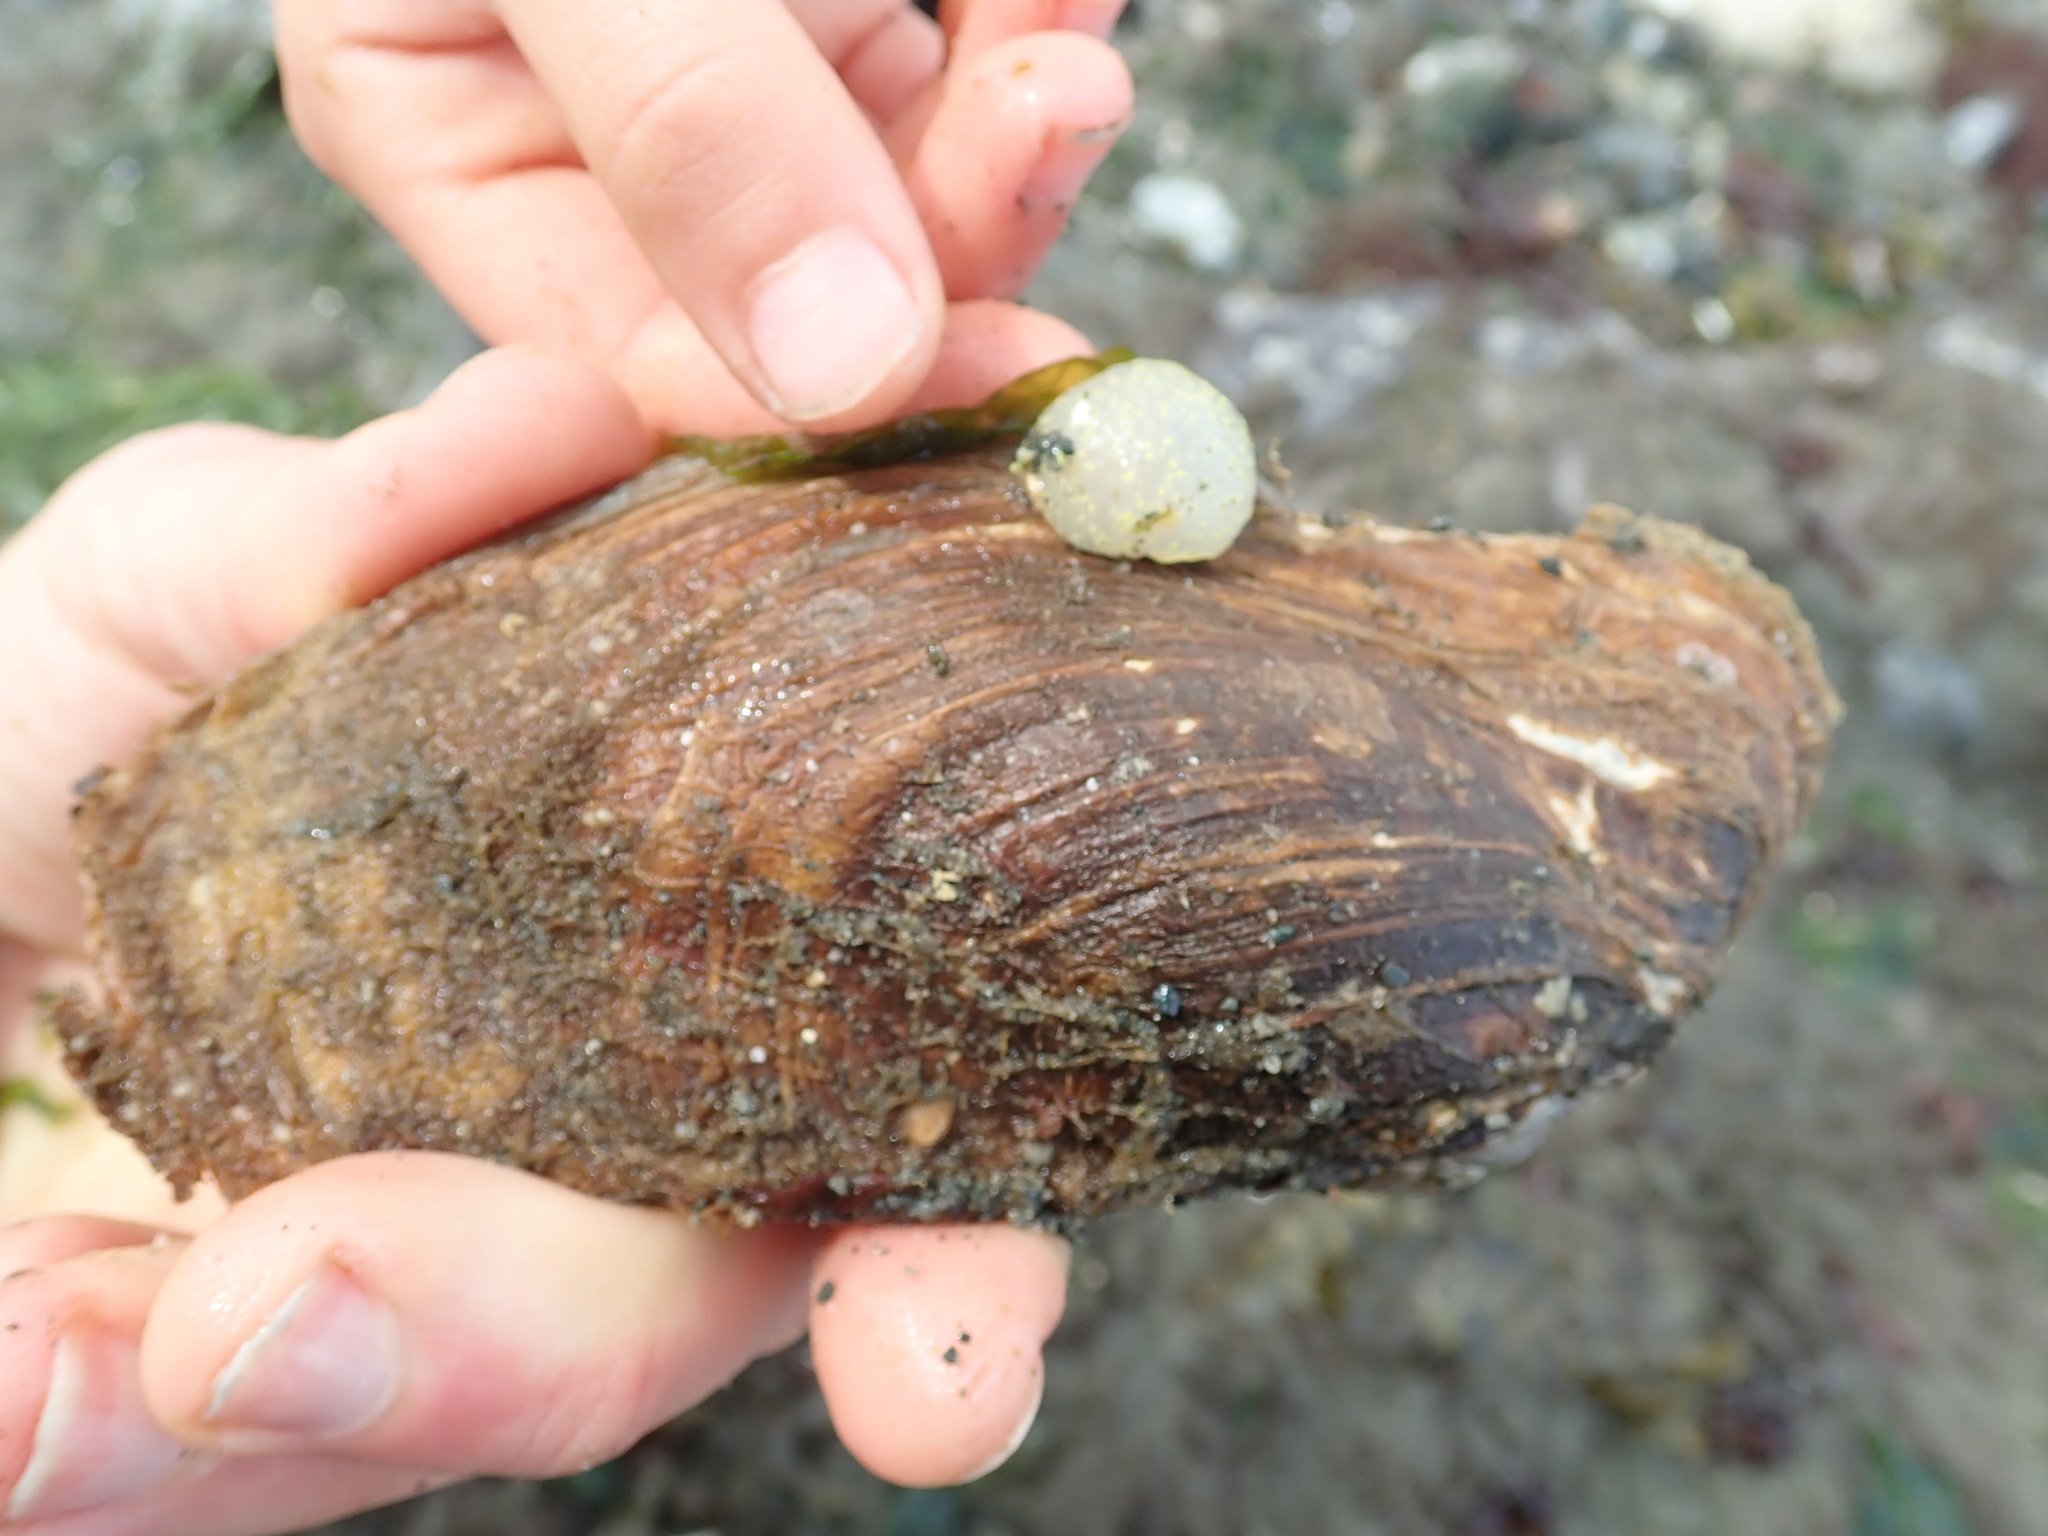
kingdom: Animalia
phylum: Mollusca
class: Bivalvia
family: Lyonsiidae
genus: Entodesma
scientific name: Entodesma navicula
